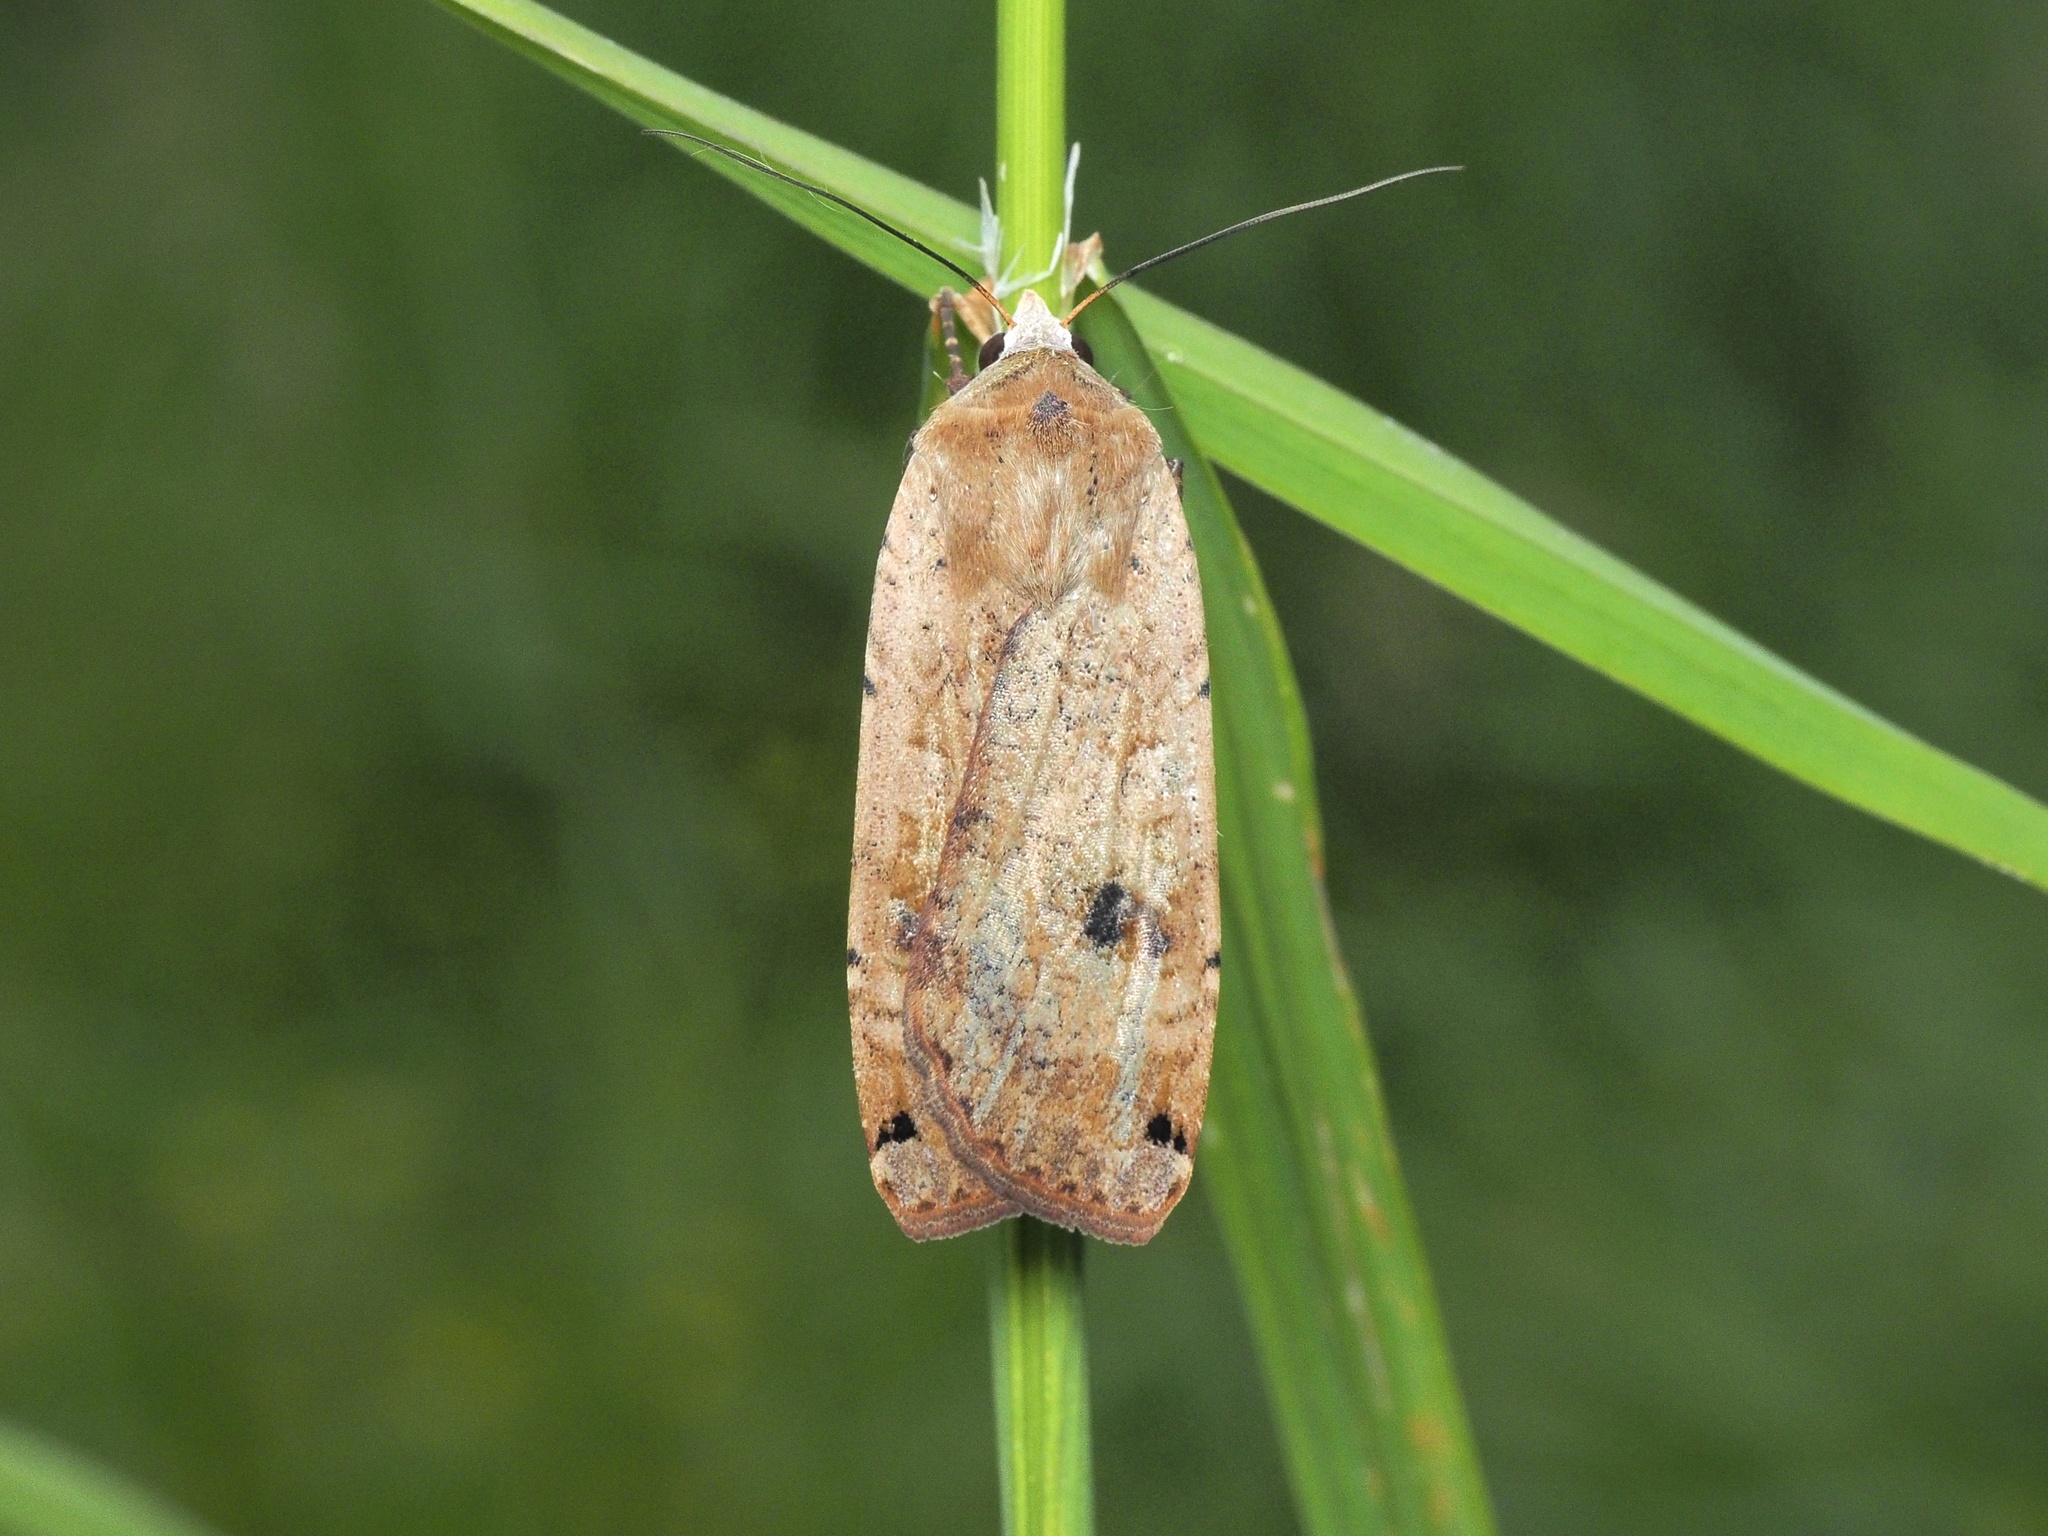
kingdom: Animalia
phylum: Arthropoda
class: Insecta
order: Lepidoptera
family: Noctuidae
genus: Noctua
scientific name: Noctua pronuba
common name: Large yellow underwing
